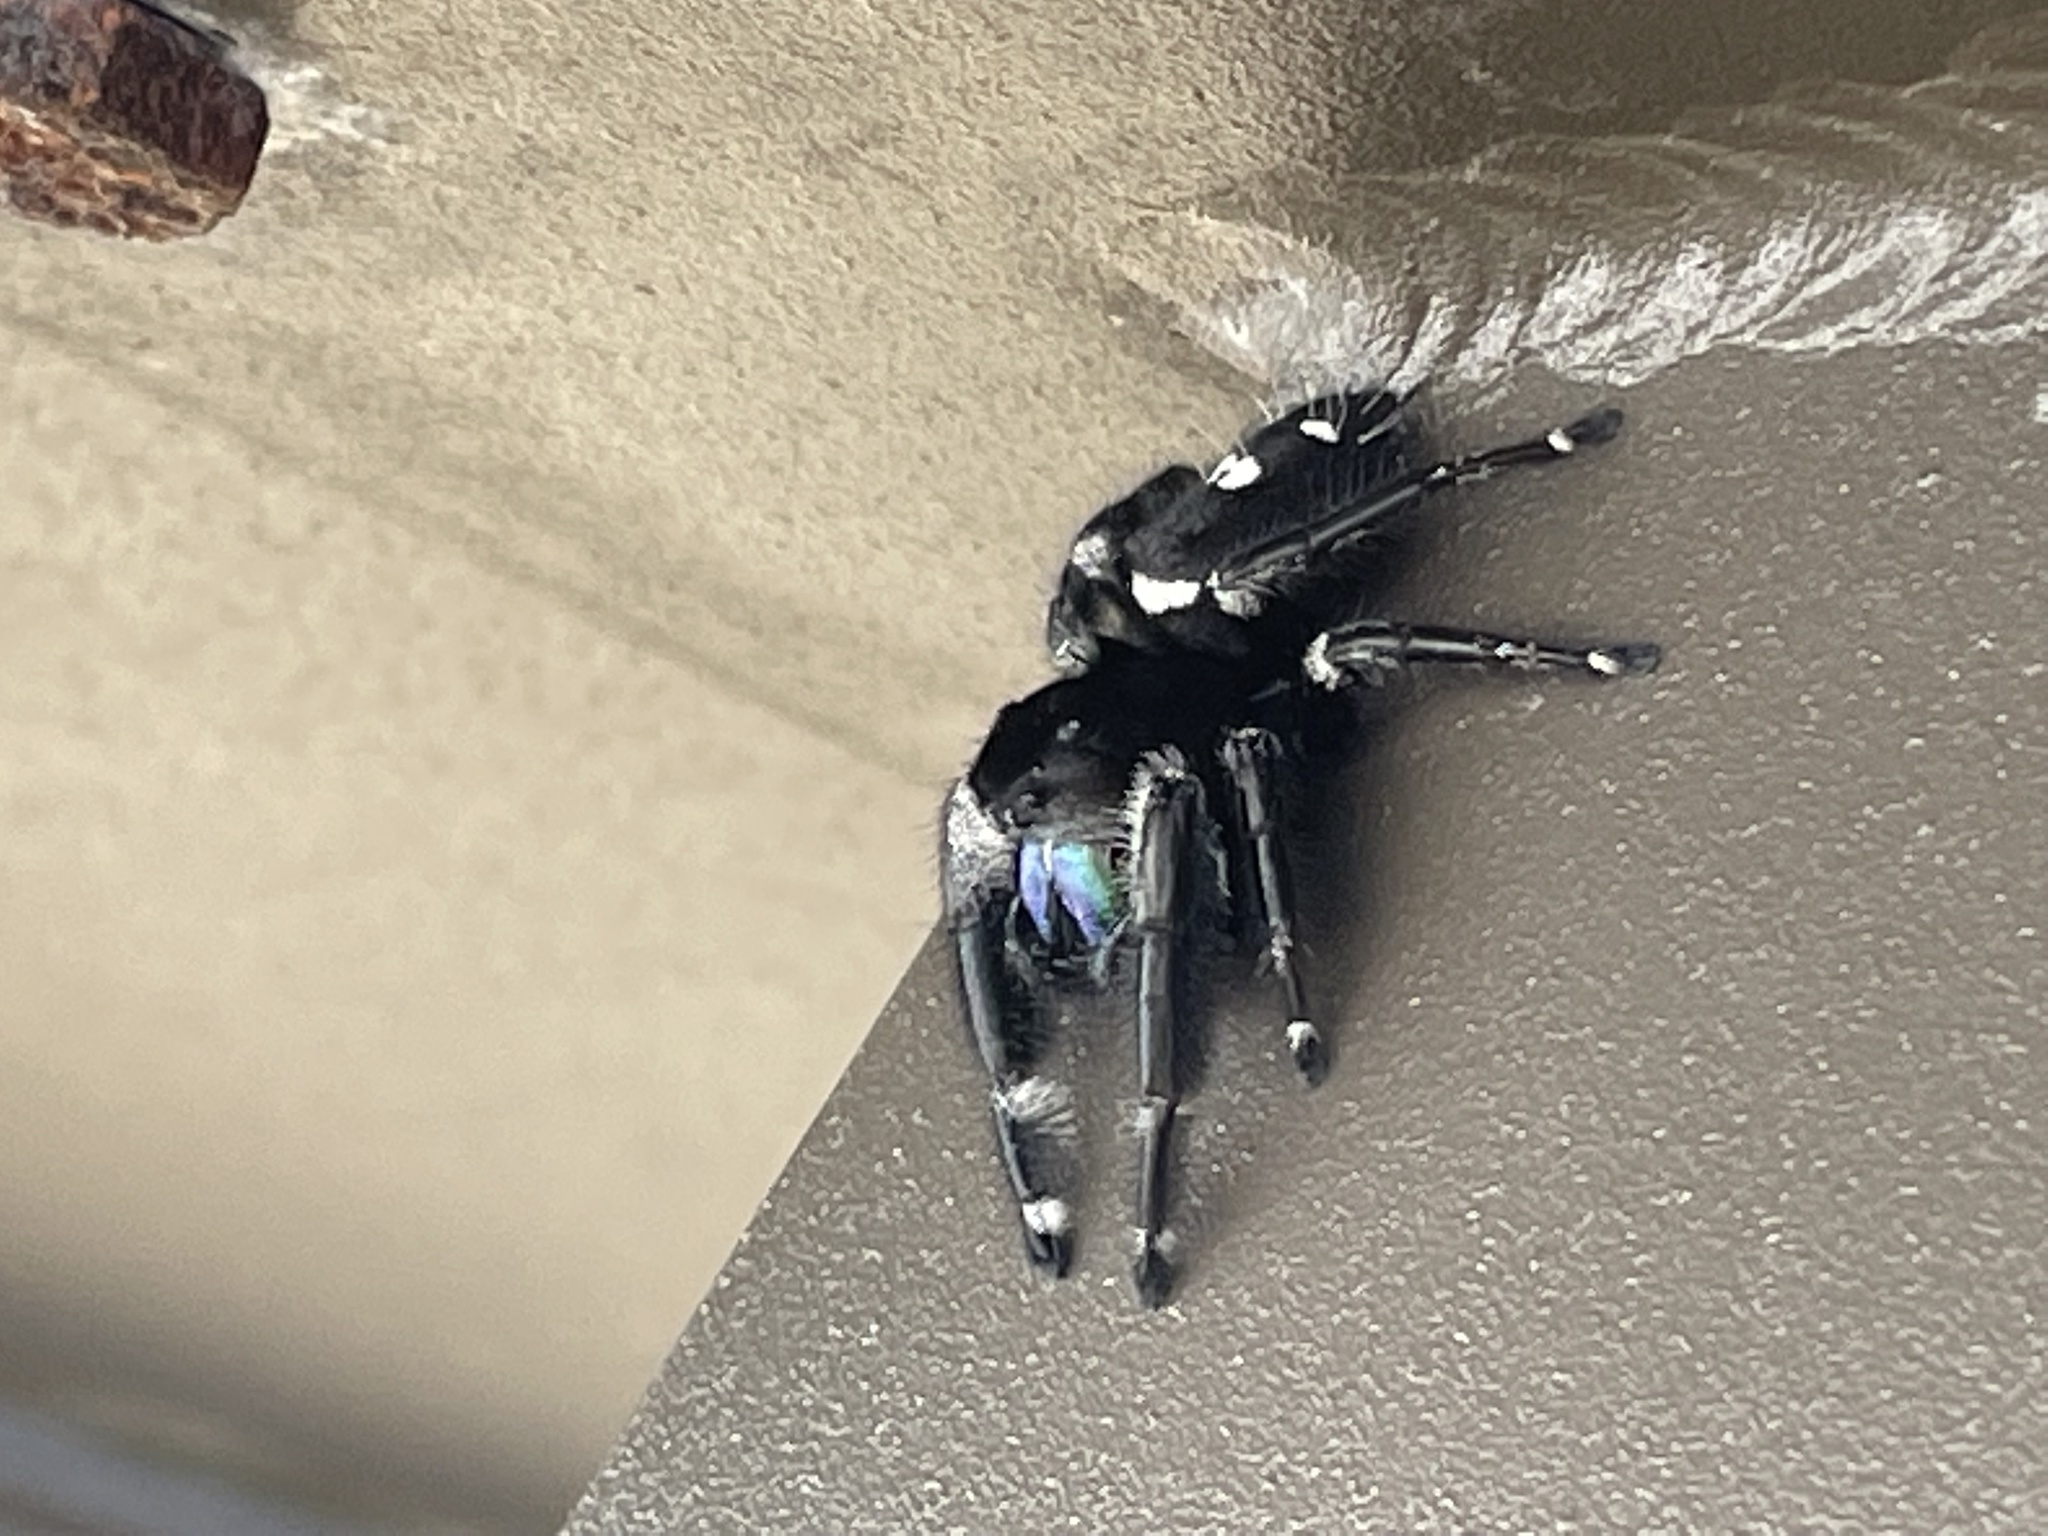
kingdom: Animalia
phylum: Arthropoda
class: Arachnida
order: Araneae
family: Salticidae
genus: Phidippus
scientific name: Phidippus regius
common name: Regal jumper
